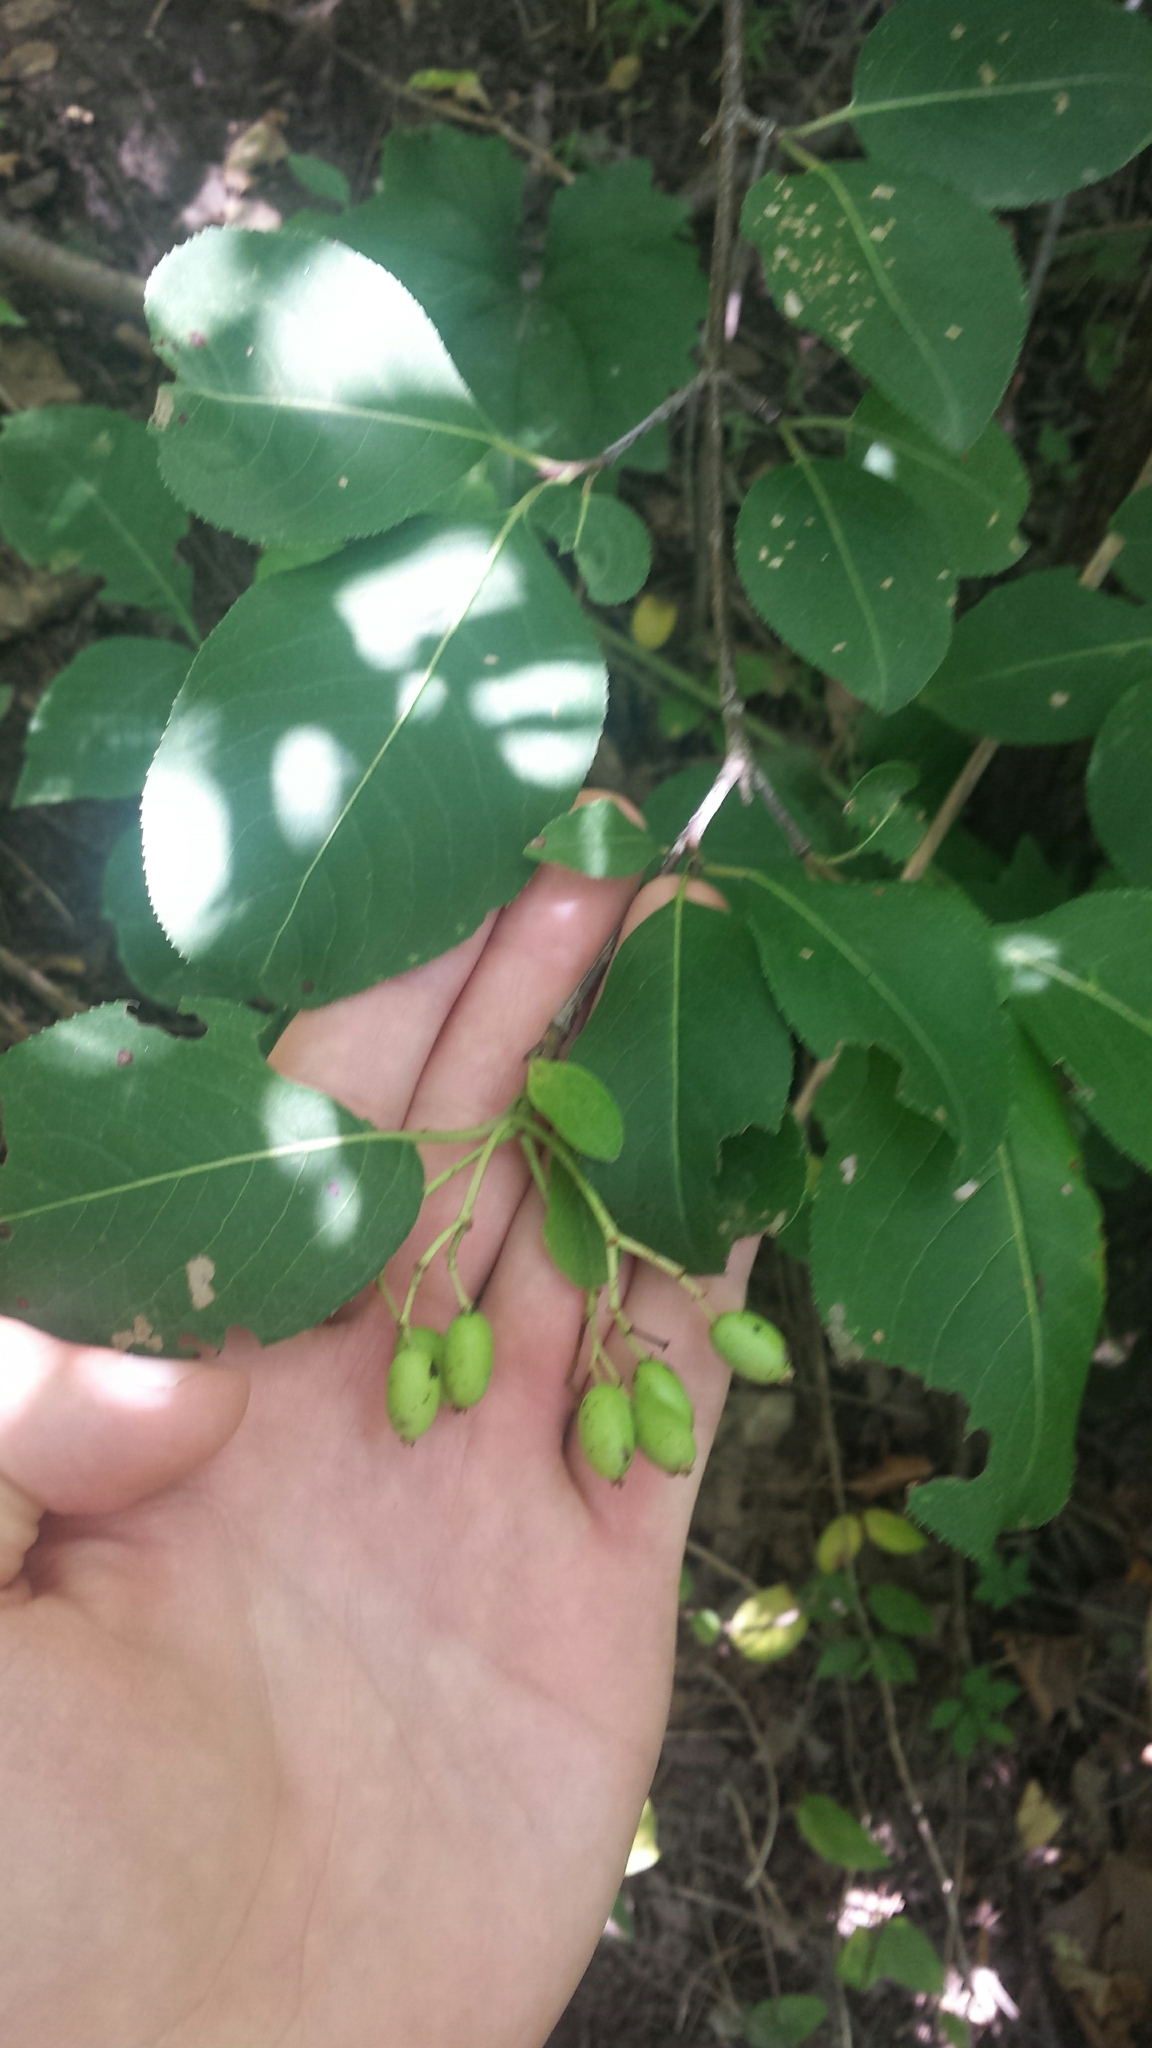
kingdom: Plantae
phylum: Tracheophyta
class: Magnoliopsida
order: Dipsacales
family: Viburnaceae
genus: Viburnum
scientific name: Viburnum prunifolium
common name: Black haw
